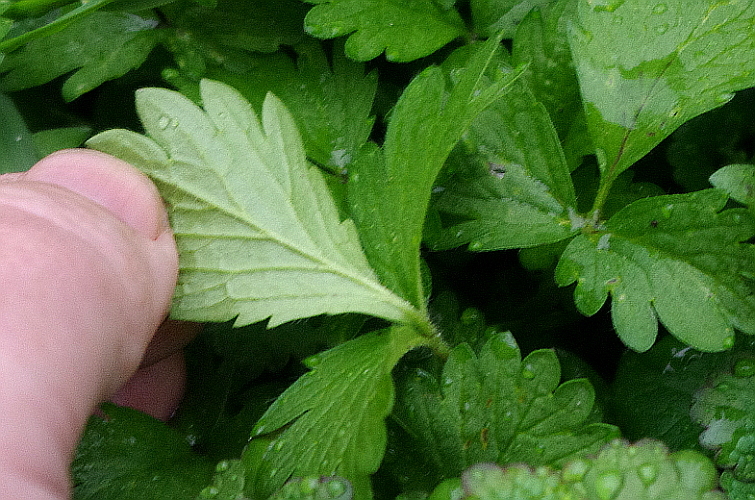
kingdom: Plantae
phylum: Tracheophyta
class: Magnoliopsida
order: Rosales
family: Rosaceae
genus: Potentilla
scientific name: Potentilla norvegica
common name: Ternate-leaved cinquefoil
